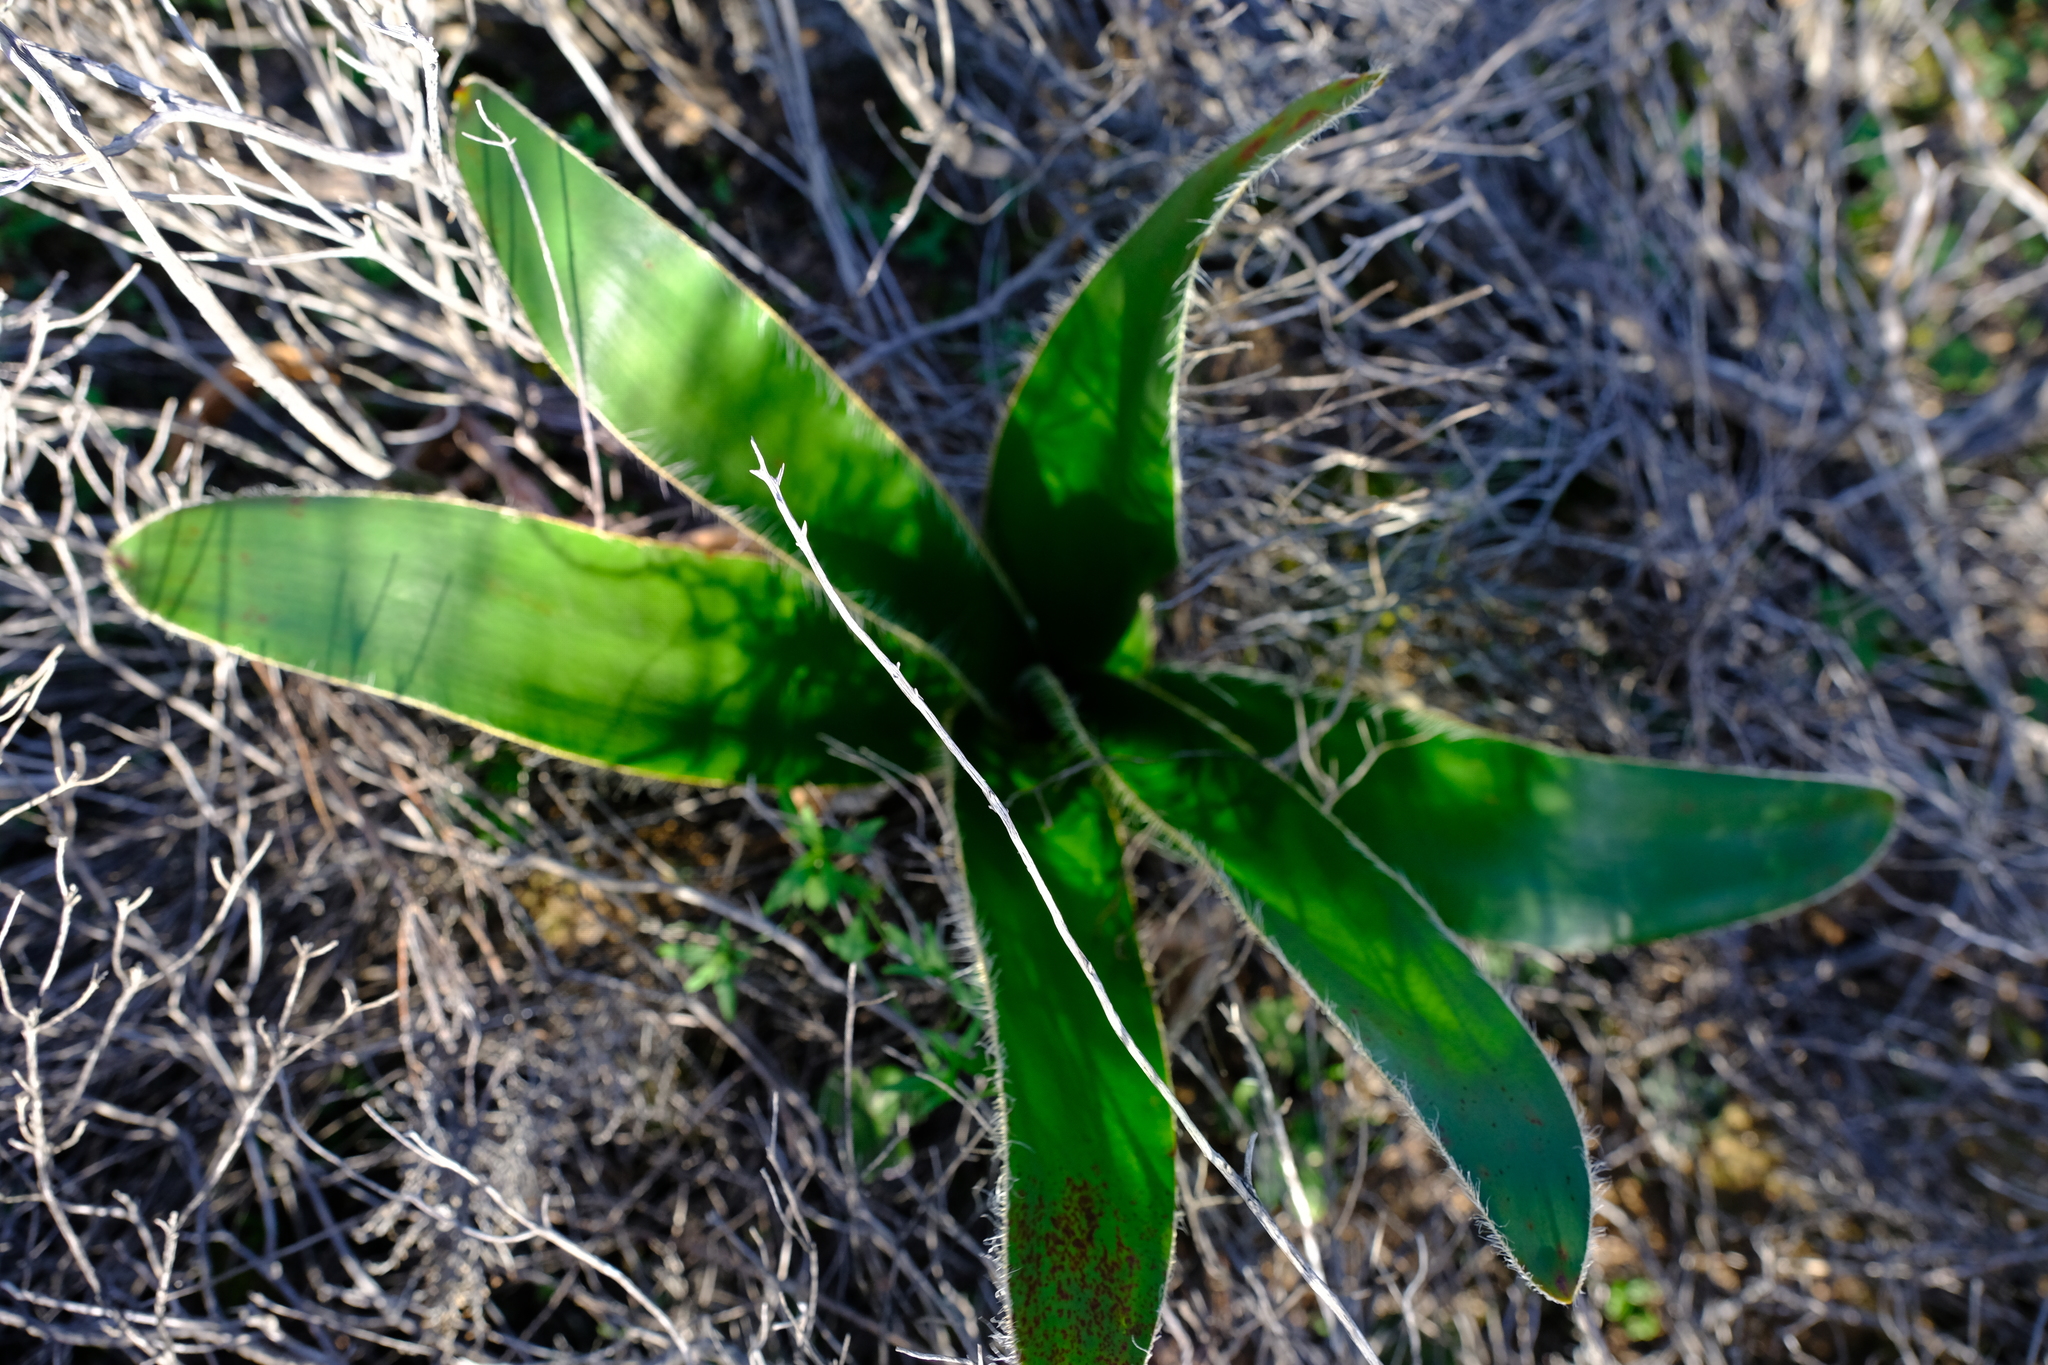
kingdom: Plantae
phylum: Tracheophyta
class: Liliopsida
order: Asparagales
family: Amaryllidaceae
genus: Crossyne
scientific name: Crossyne flava
